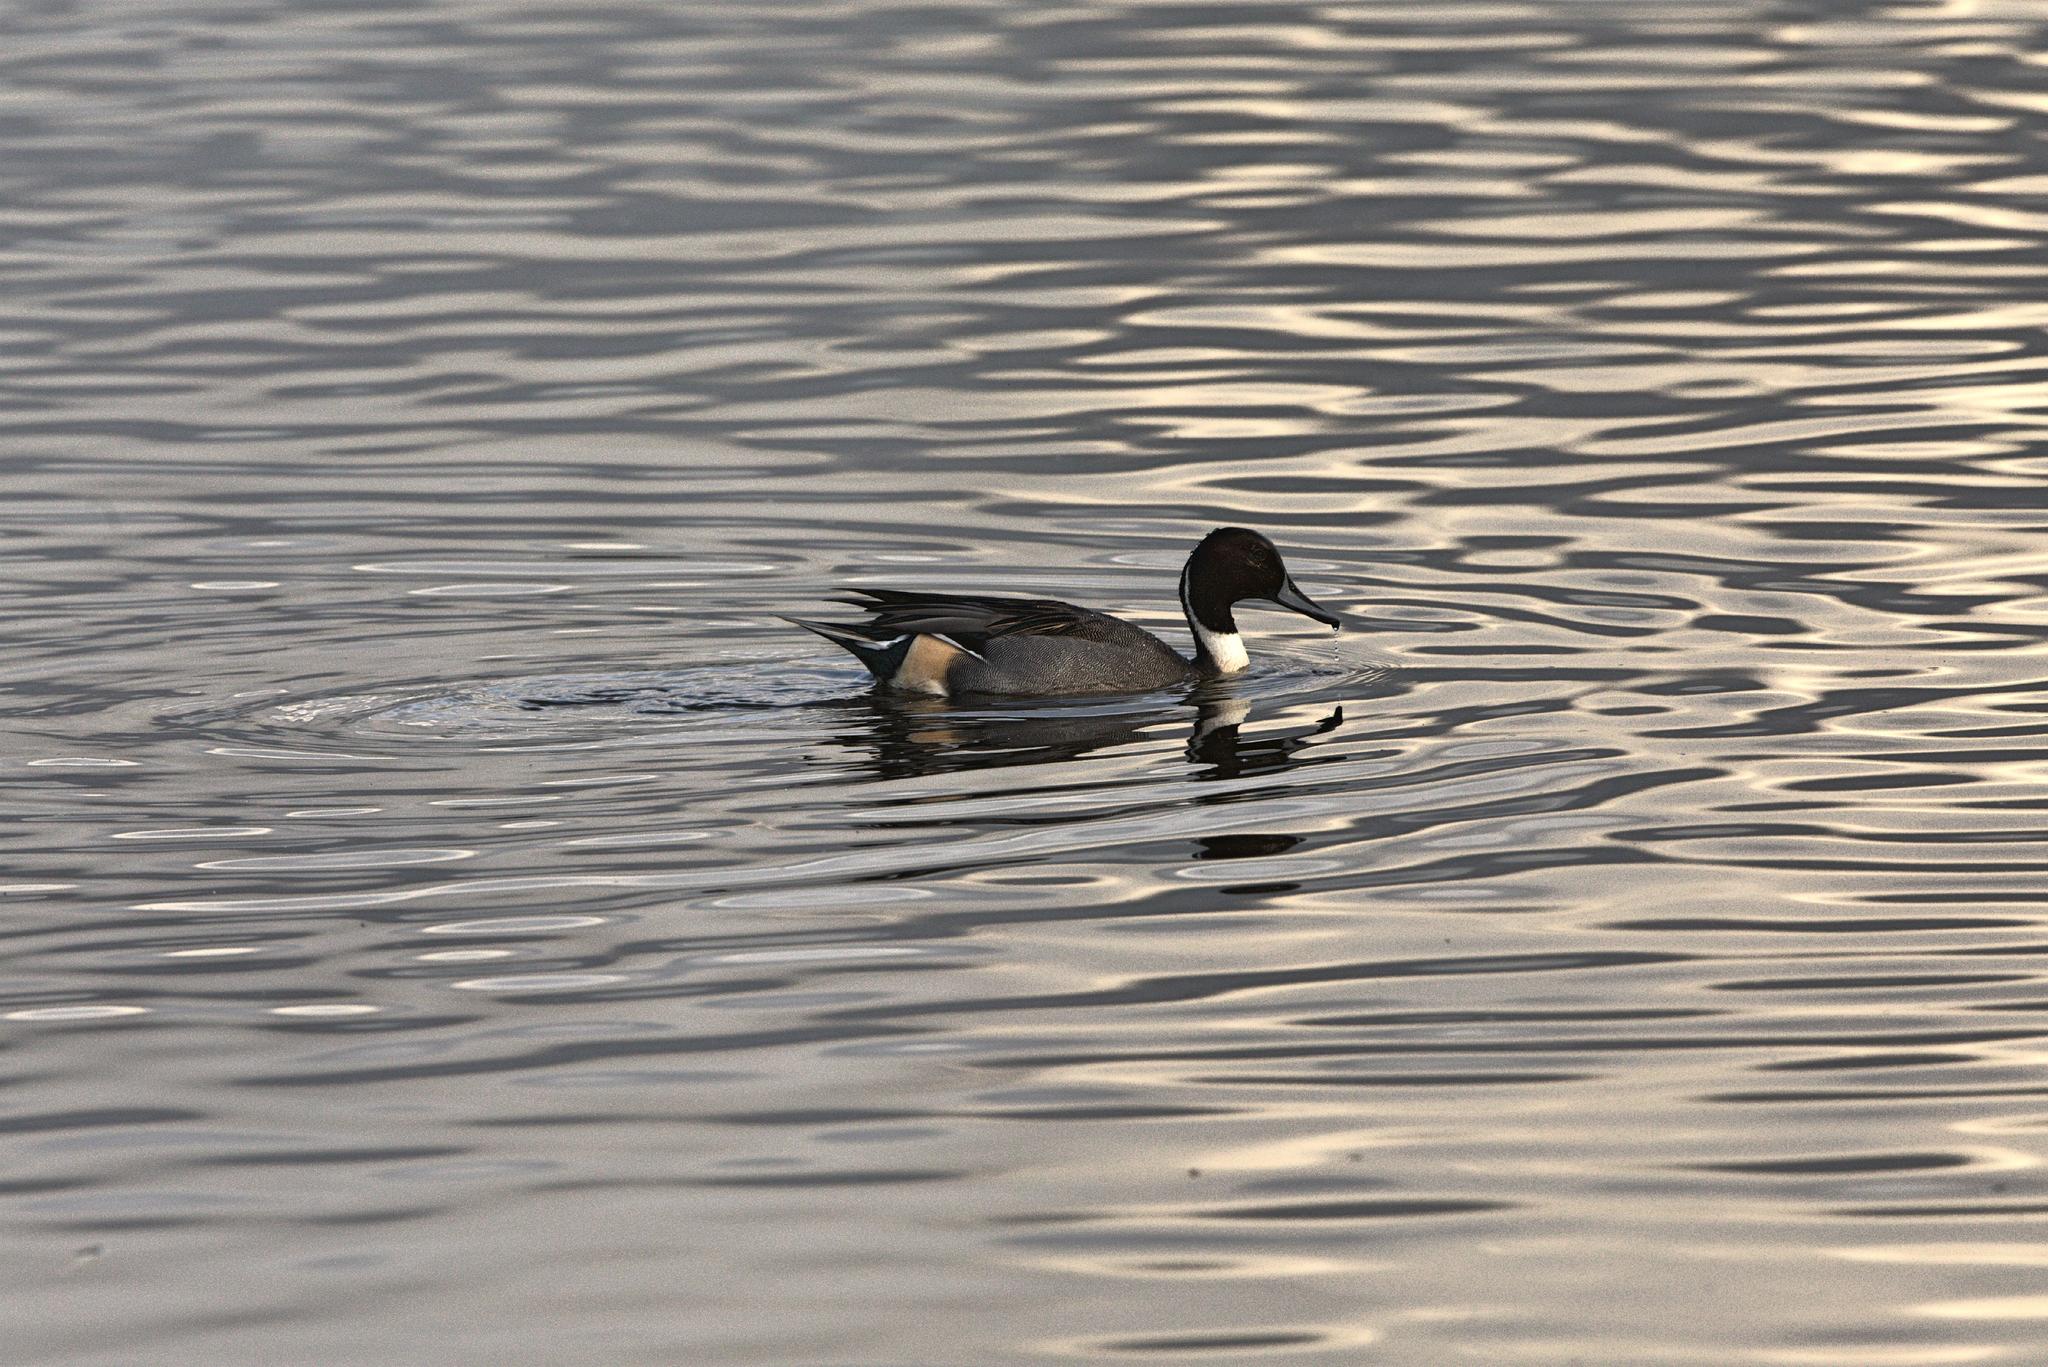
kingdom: Animalia
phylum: Chordata
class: Aves
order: Anseriformes
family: Anatidae
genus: Anas
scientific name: Anas acuta
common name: Northern pintail
